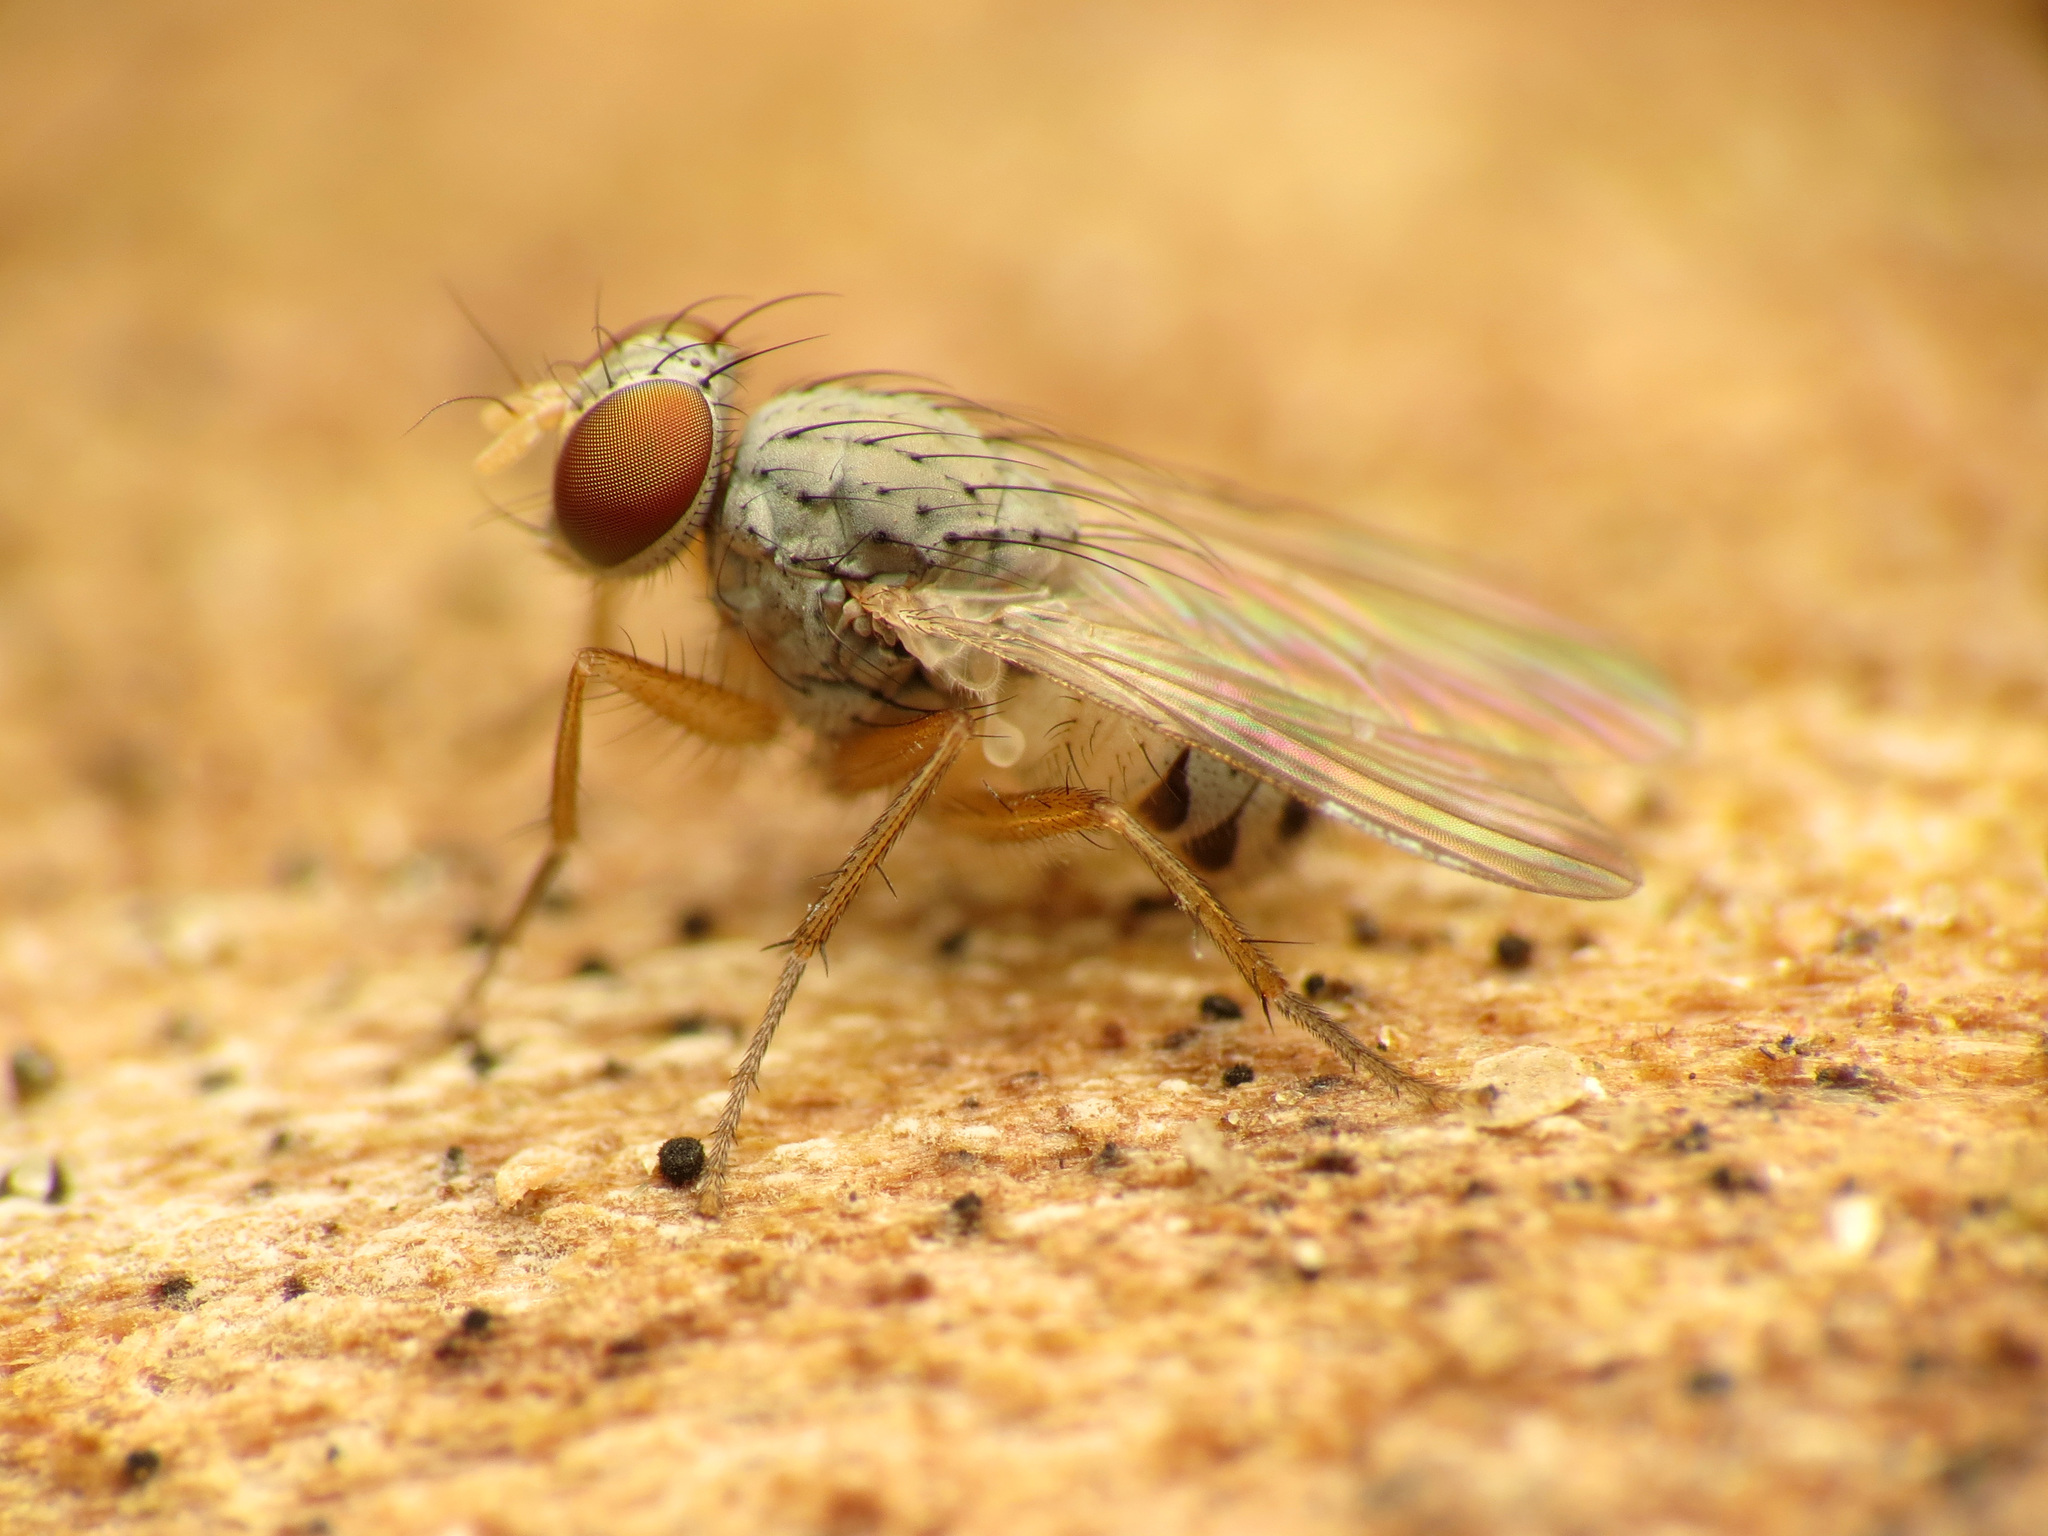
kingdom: Animalia
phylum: Arthropoda
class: Insecta
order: Diptera
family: Muscidae
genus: Neodexiopsis
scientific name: Neodexiopsis calopyga
